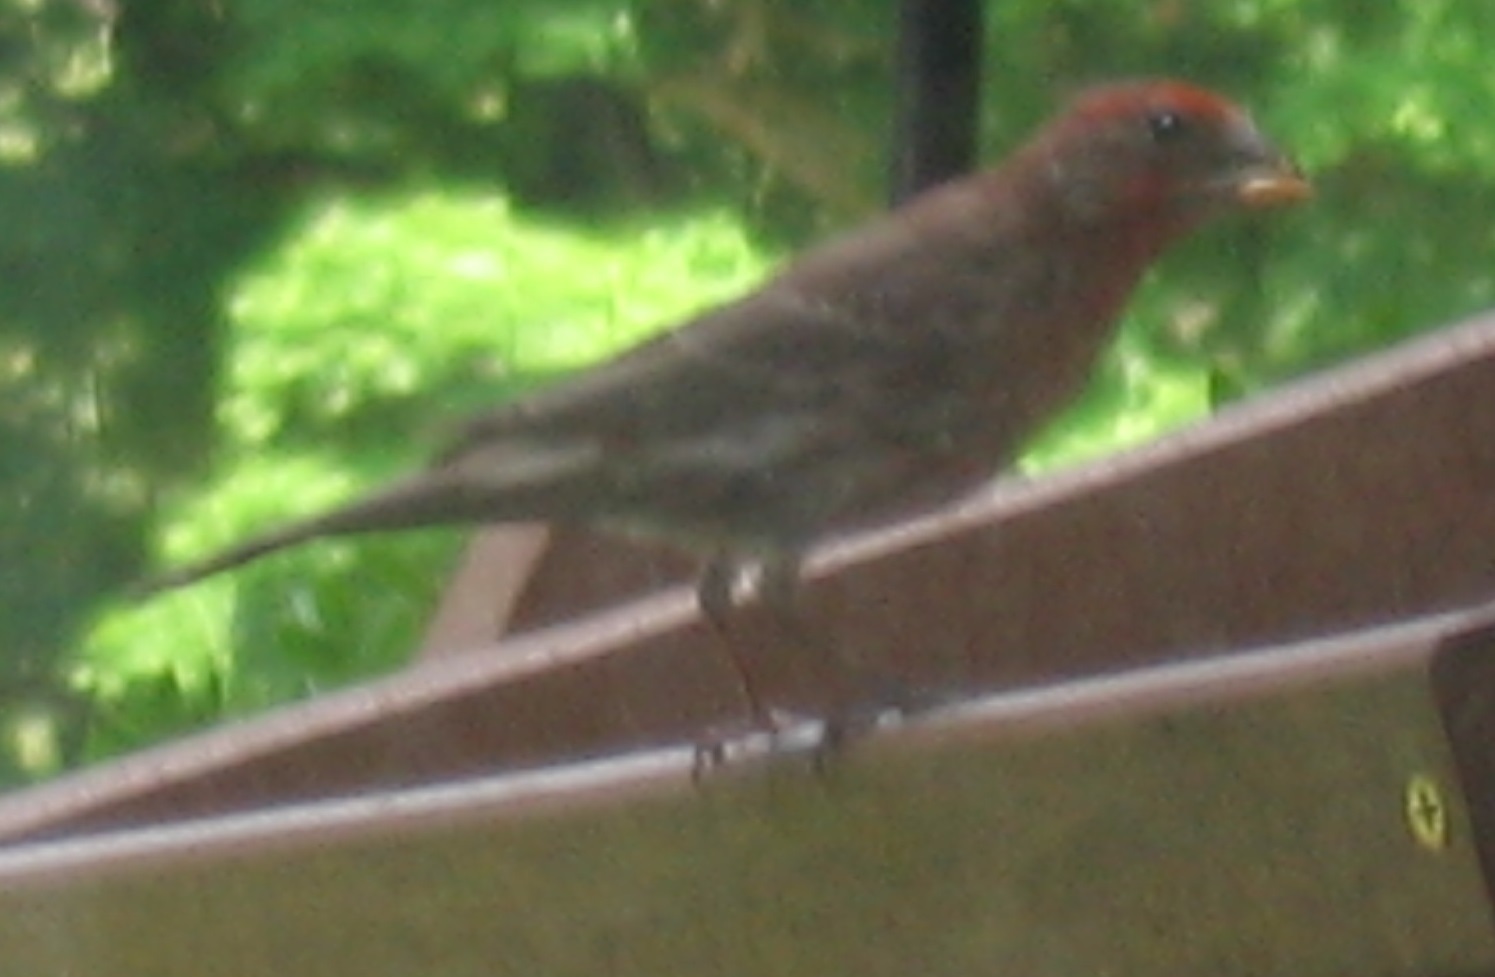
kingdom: Animalia
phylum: Chordata
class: Aves
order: Passeriformes
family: Fringillidae
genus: Haemorhous
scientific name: Haemorhous mexicanus
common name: House finch
